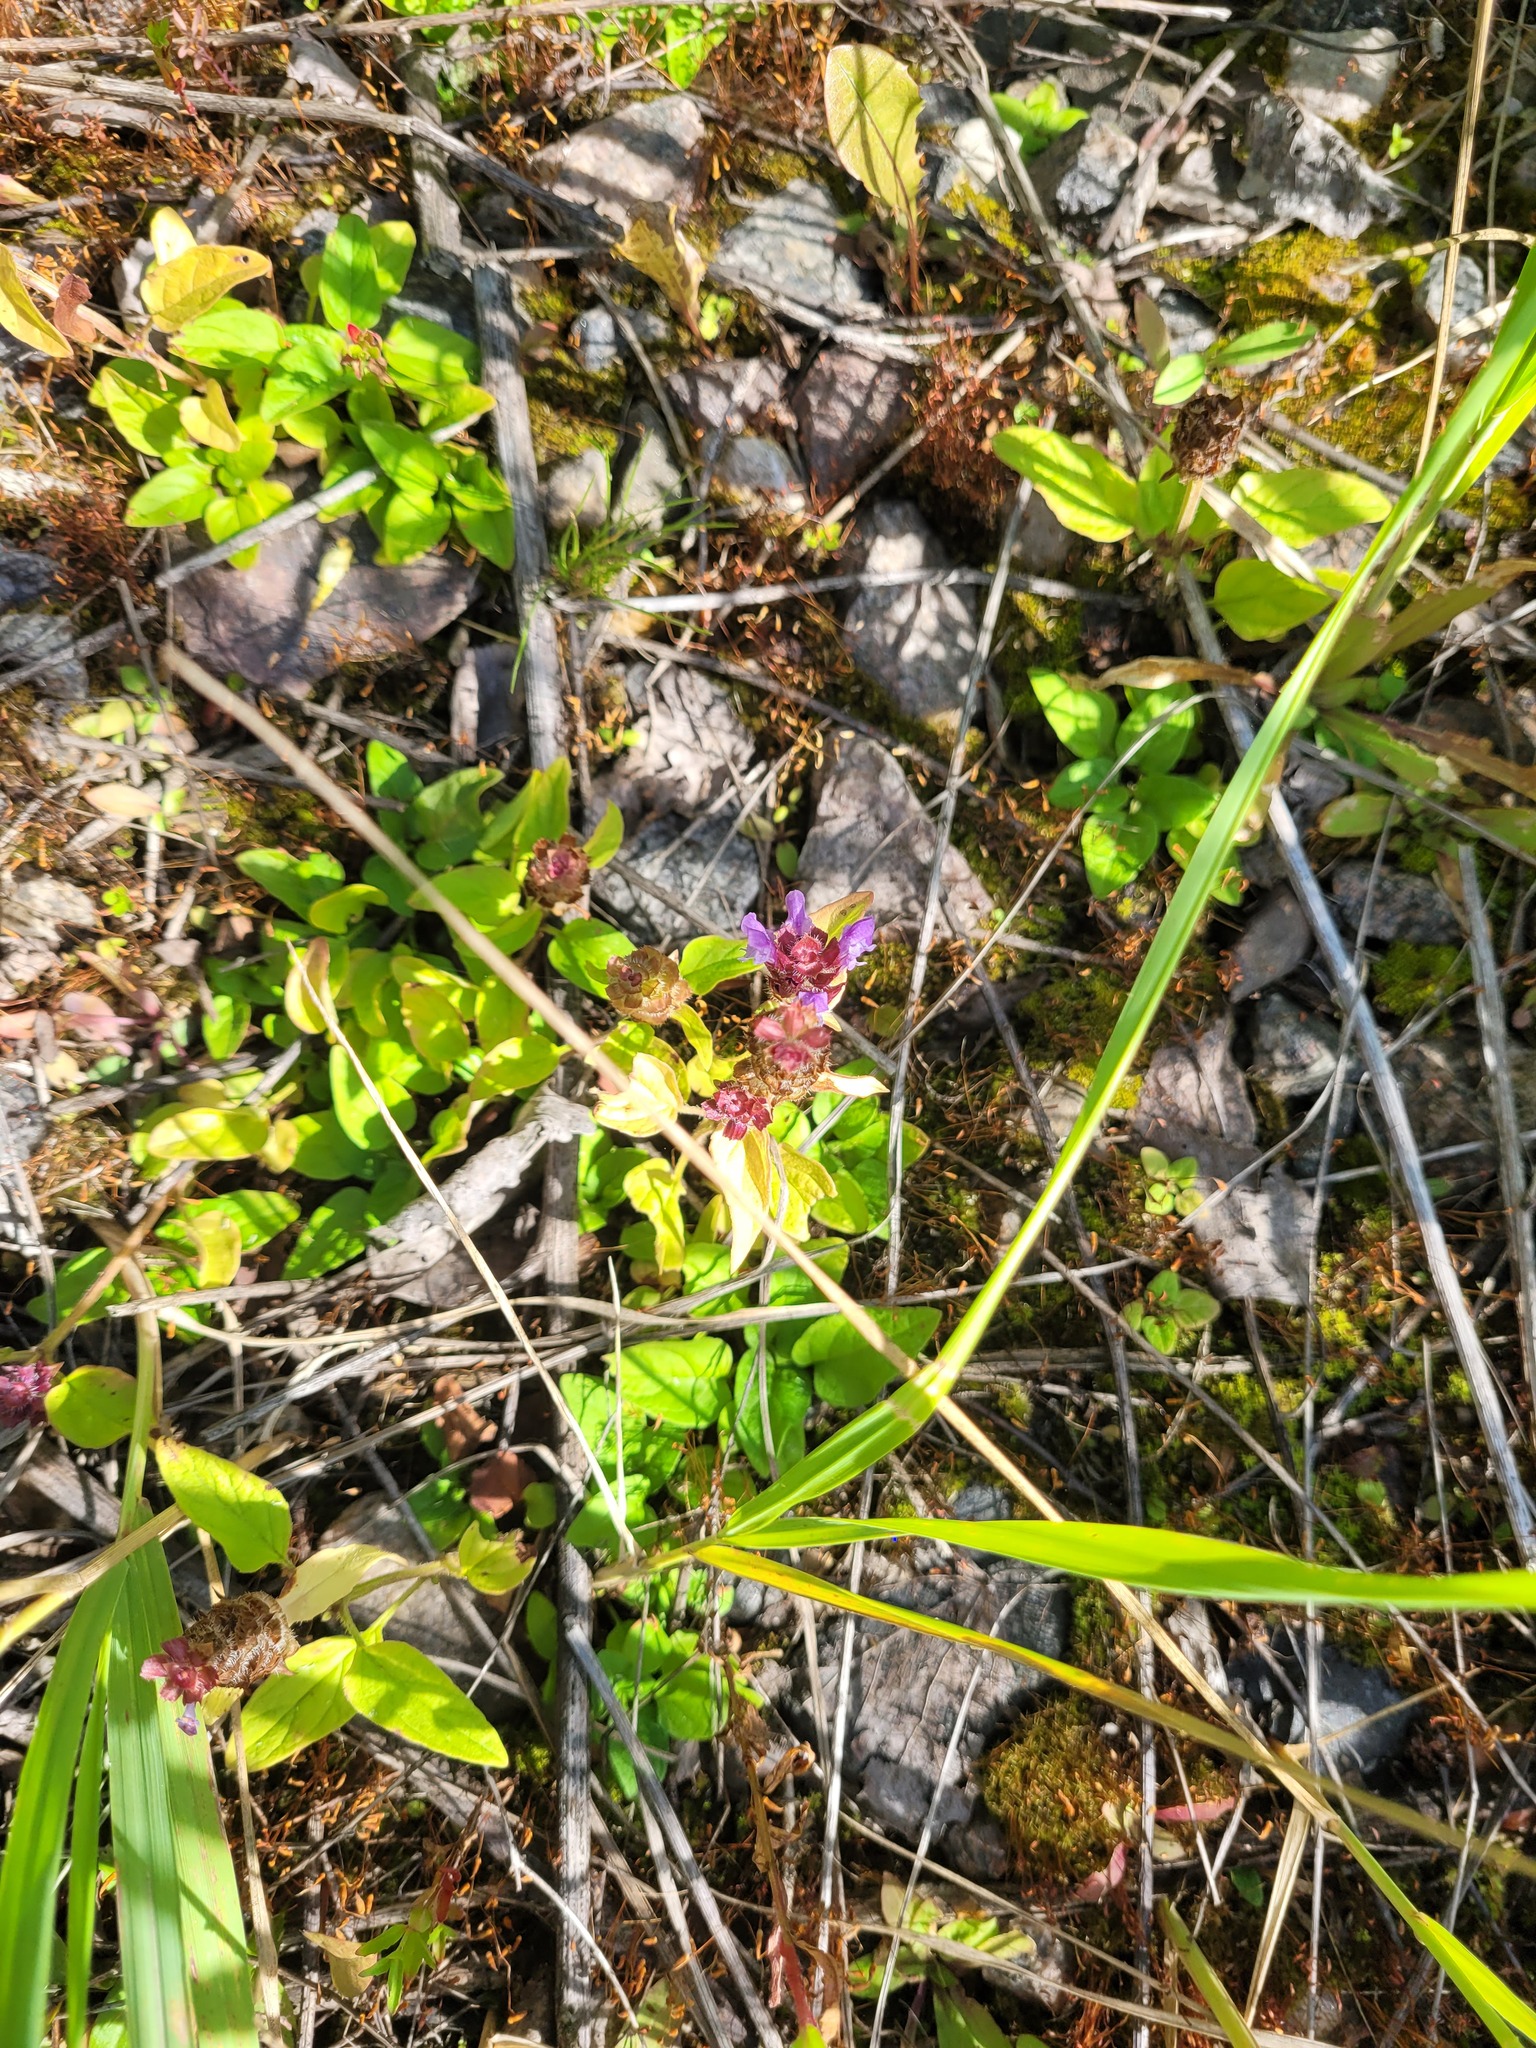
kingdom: Plantae
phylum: Tracheophyta
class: Magnoliopsida
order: Lamiales
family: Lamiaceae
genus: Prunella
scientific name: Prunella vulgaris
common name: Heal-all
